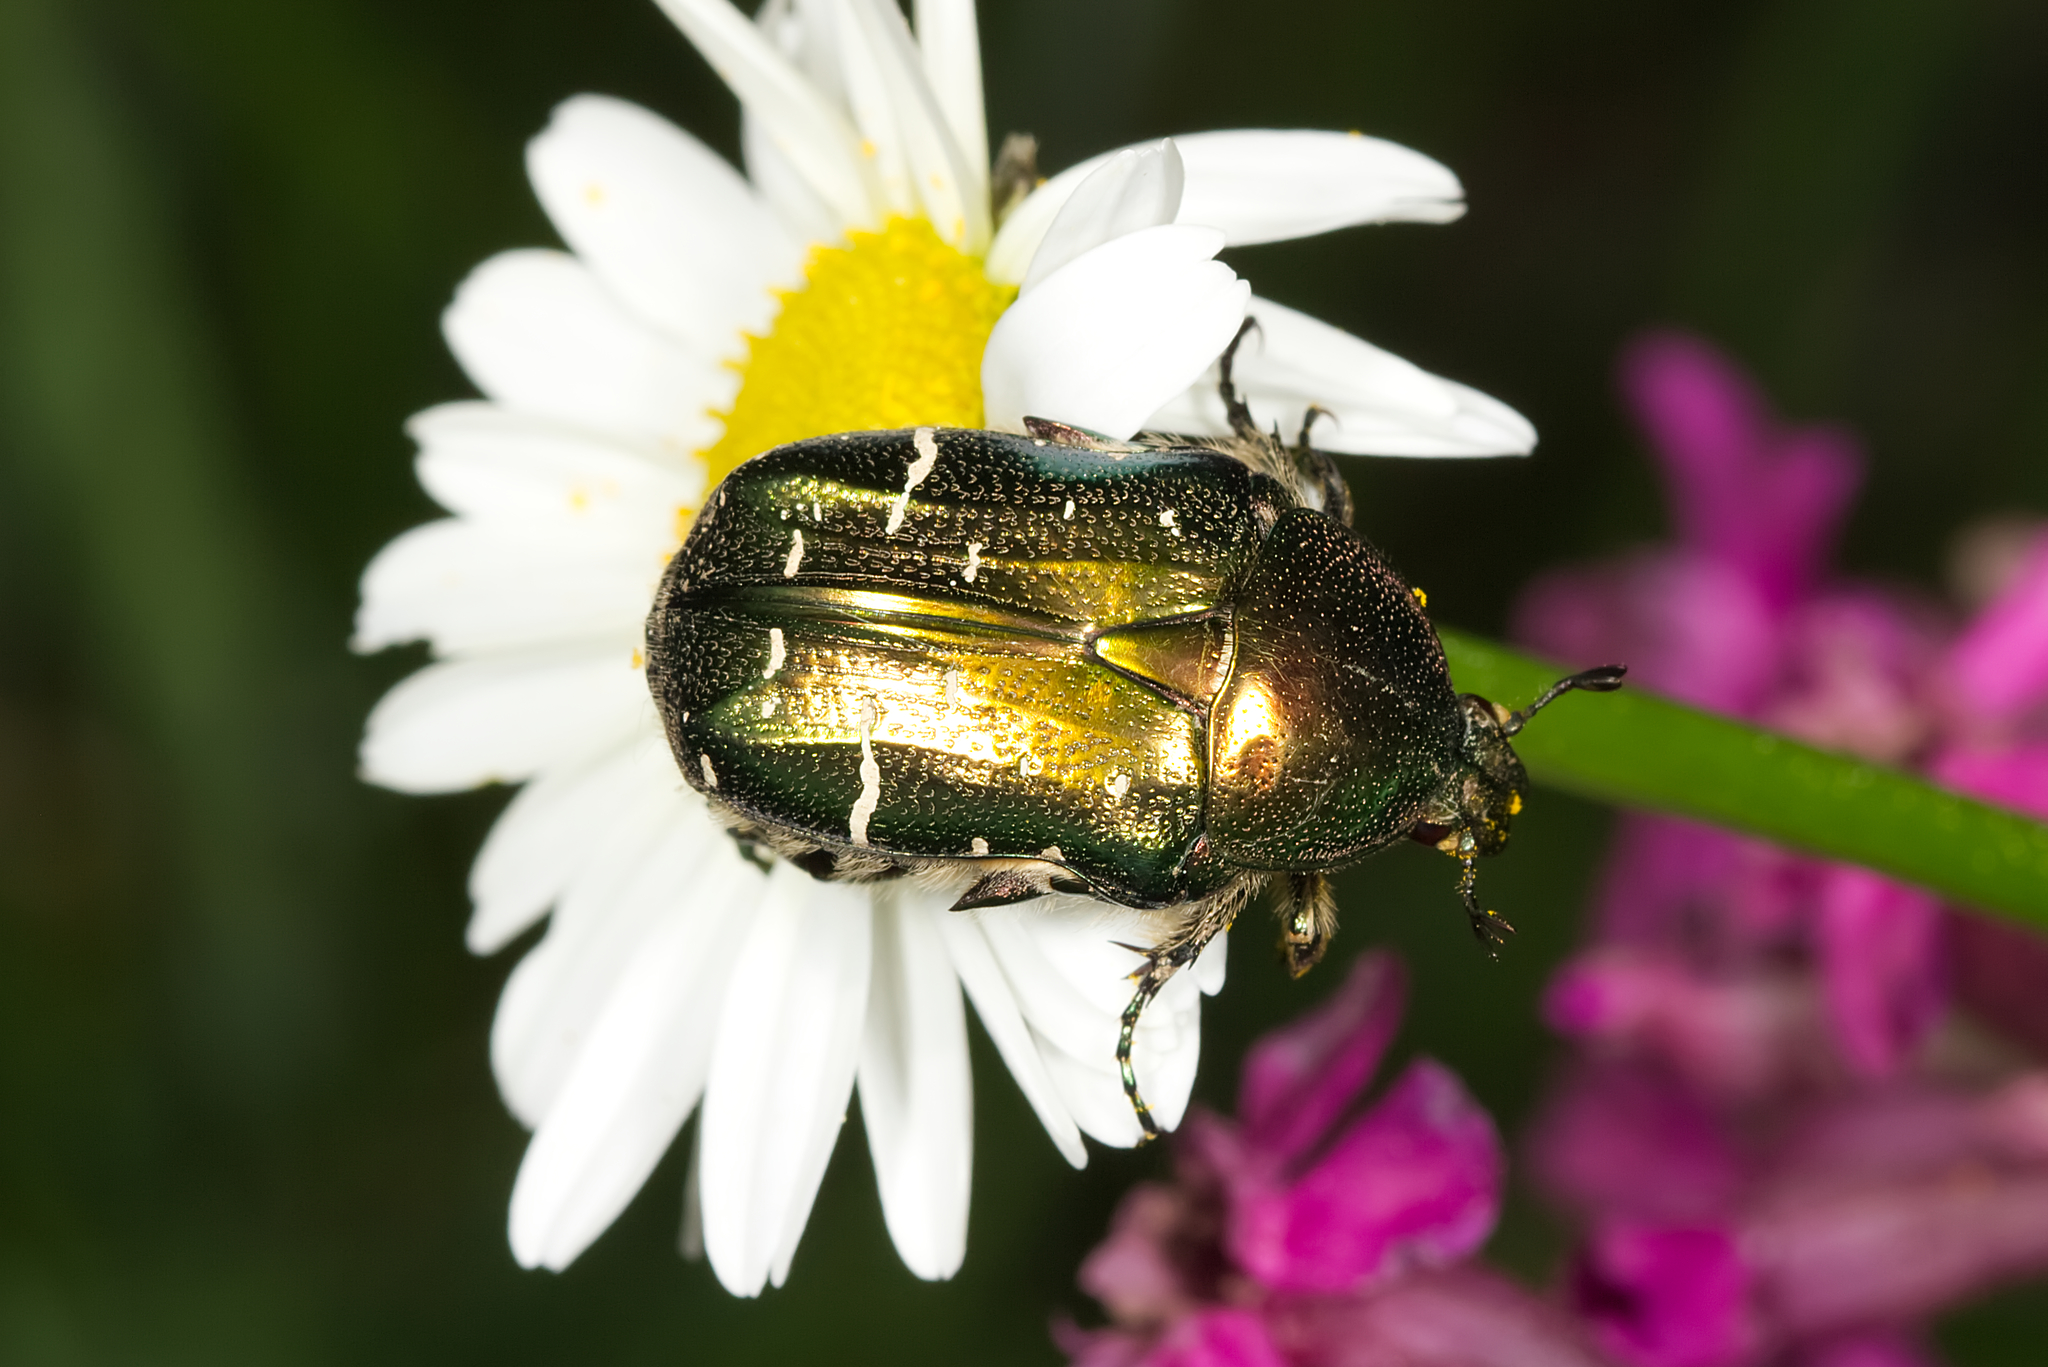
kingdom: Animalia
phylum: Arthropoda
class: Insecta
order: Coleoptera
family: Scarabaeidae
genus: Cetonia
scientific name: Cetonia aurata
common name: Rose chafer
